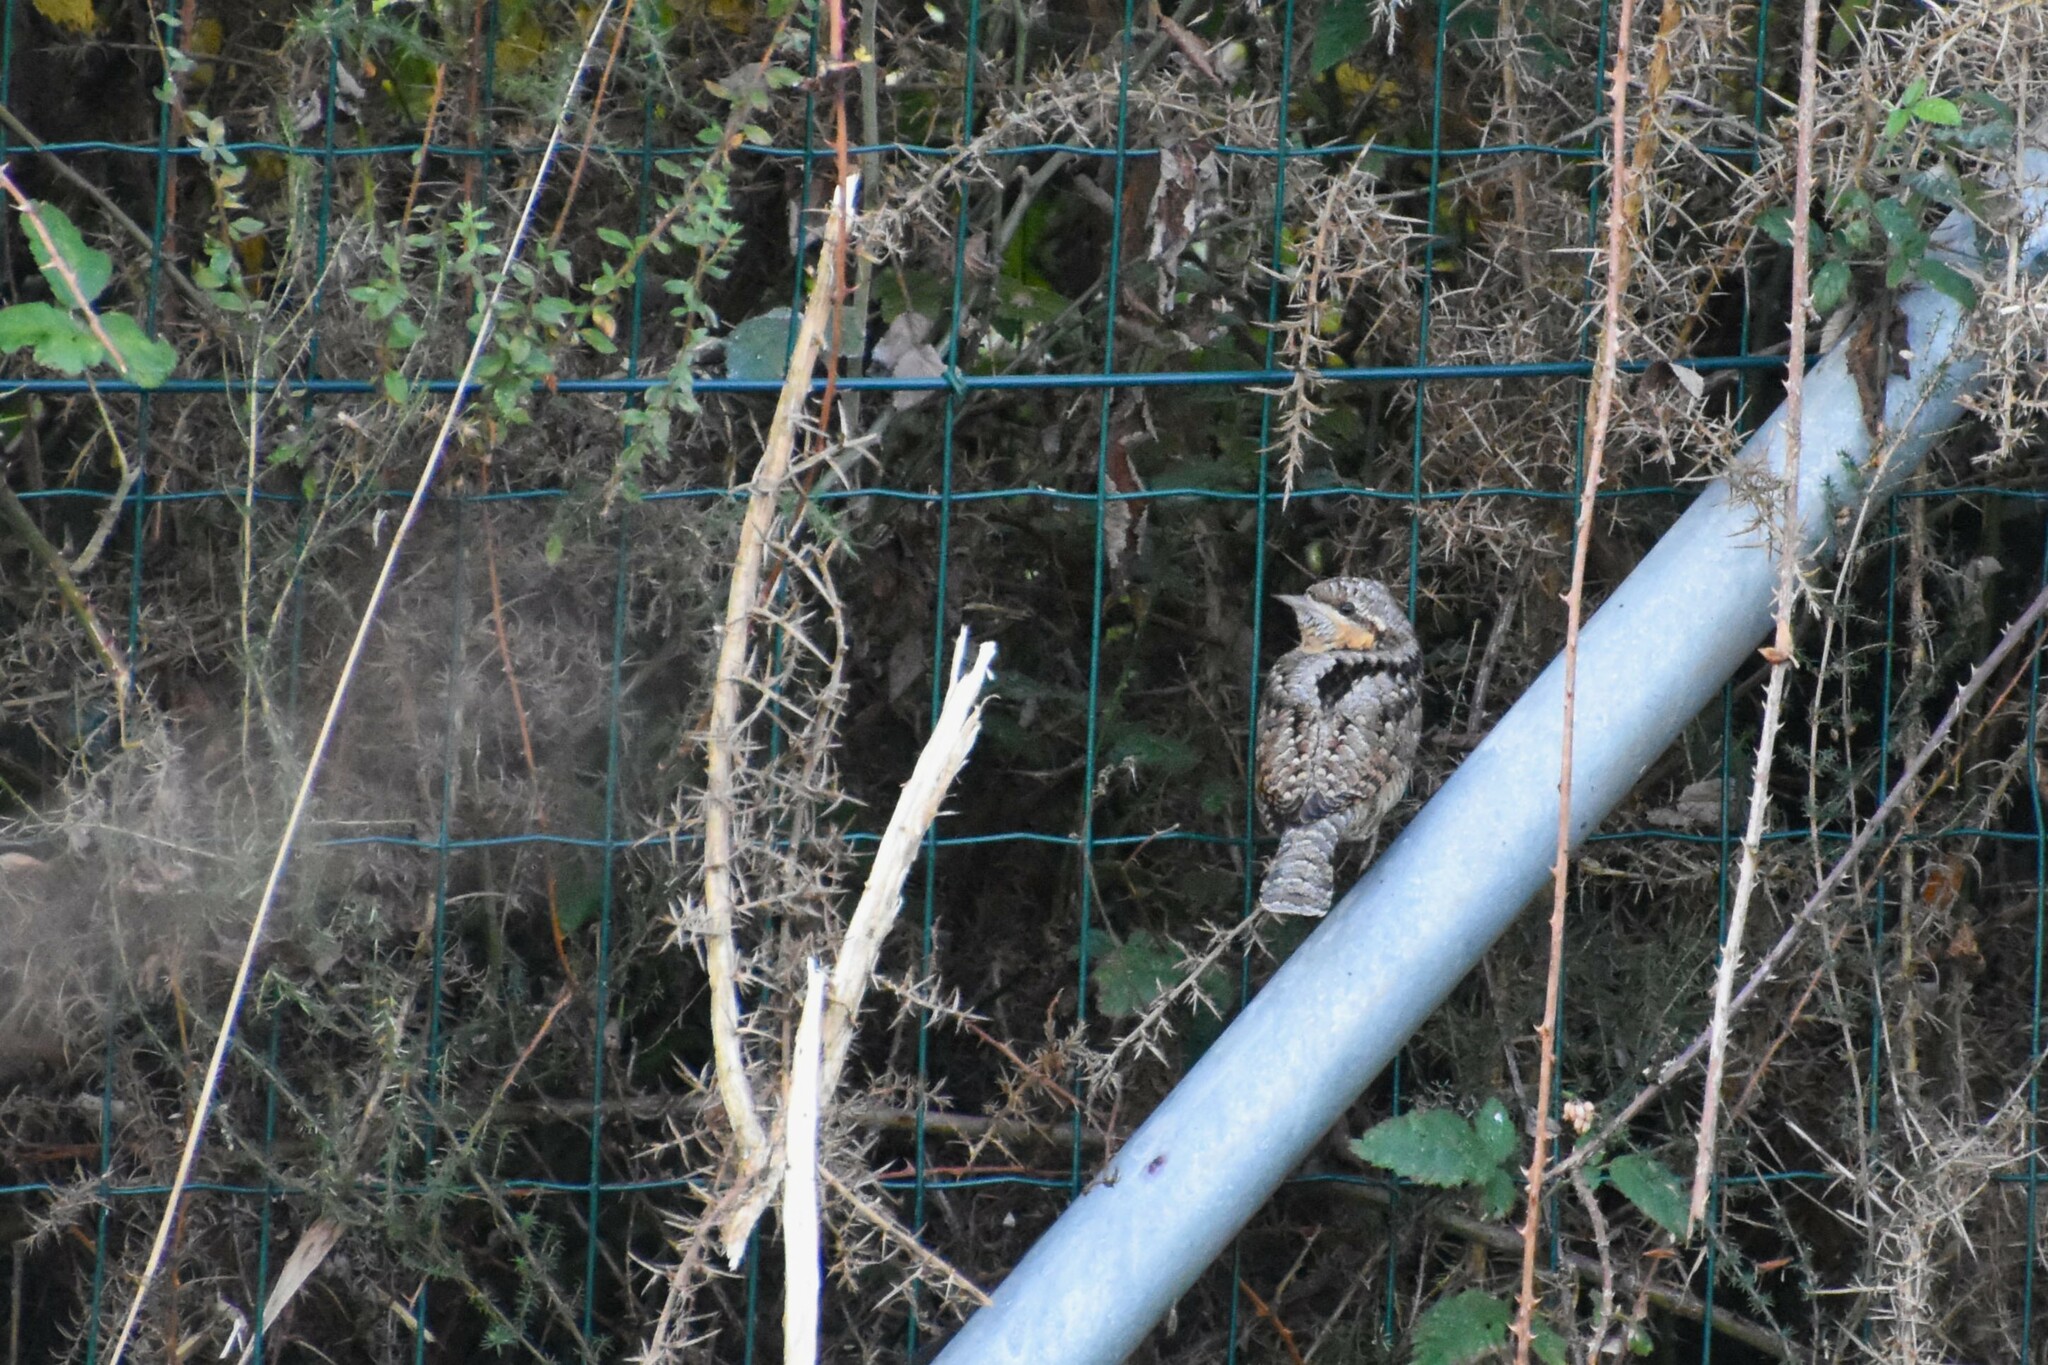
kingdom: Animalia
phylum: Chordata
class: Aves
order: Piciformes
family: Picidae
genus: Jynx
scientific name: Jynx torquilla
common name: Eurasian wryneck
